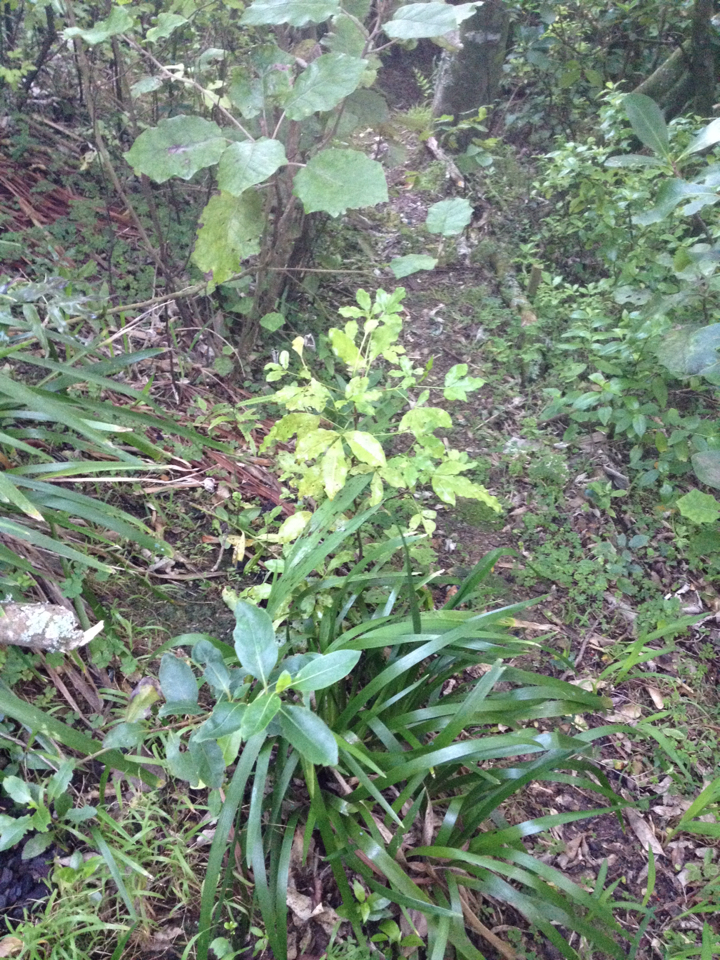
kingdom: Plantae
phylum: Tracheophyta
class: Magnoliopsida
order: Sapindales
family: Rutaceae
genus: Melicope
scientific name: Melicope ternata
